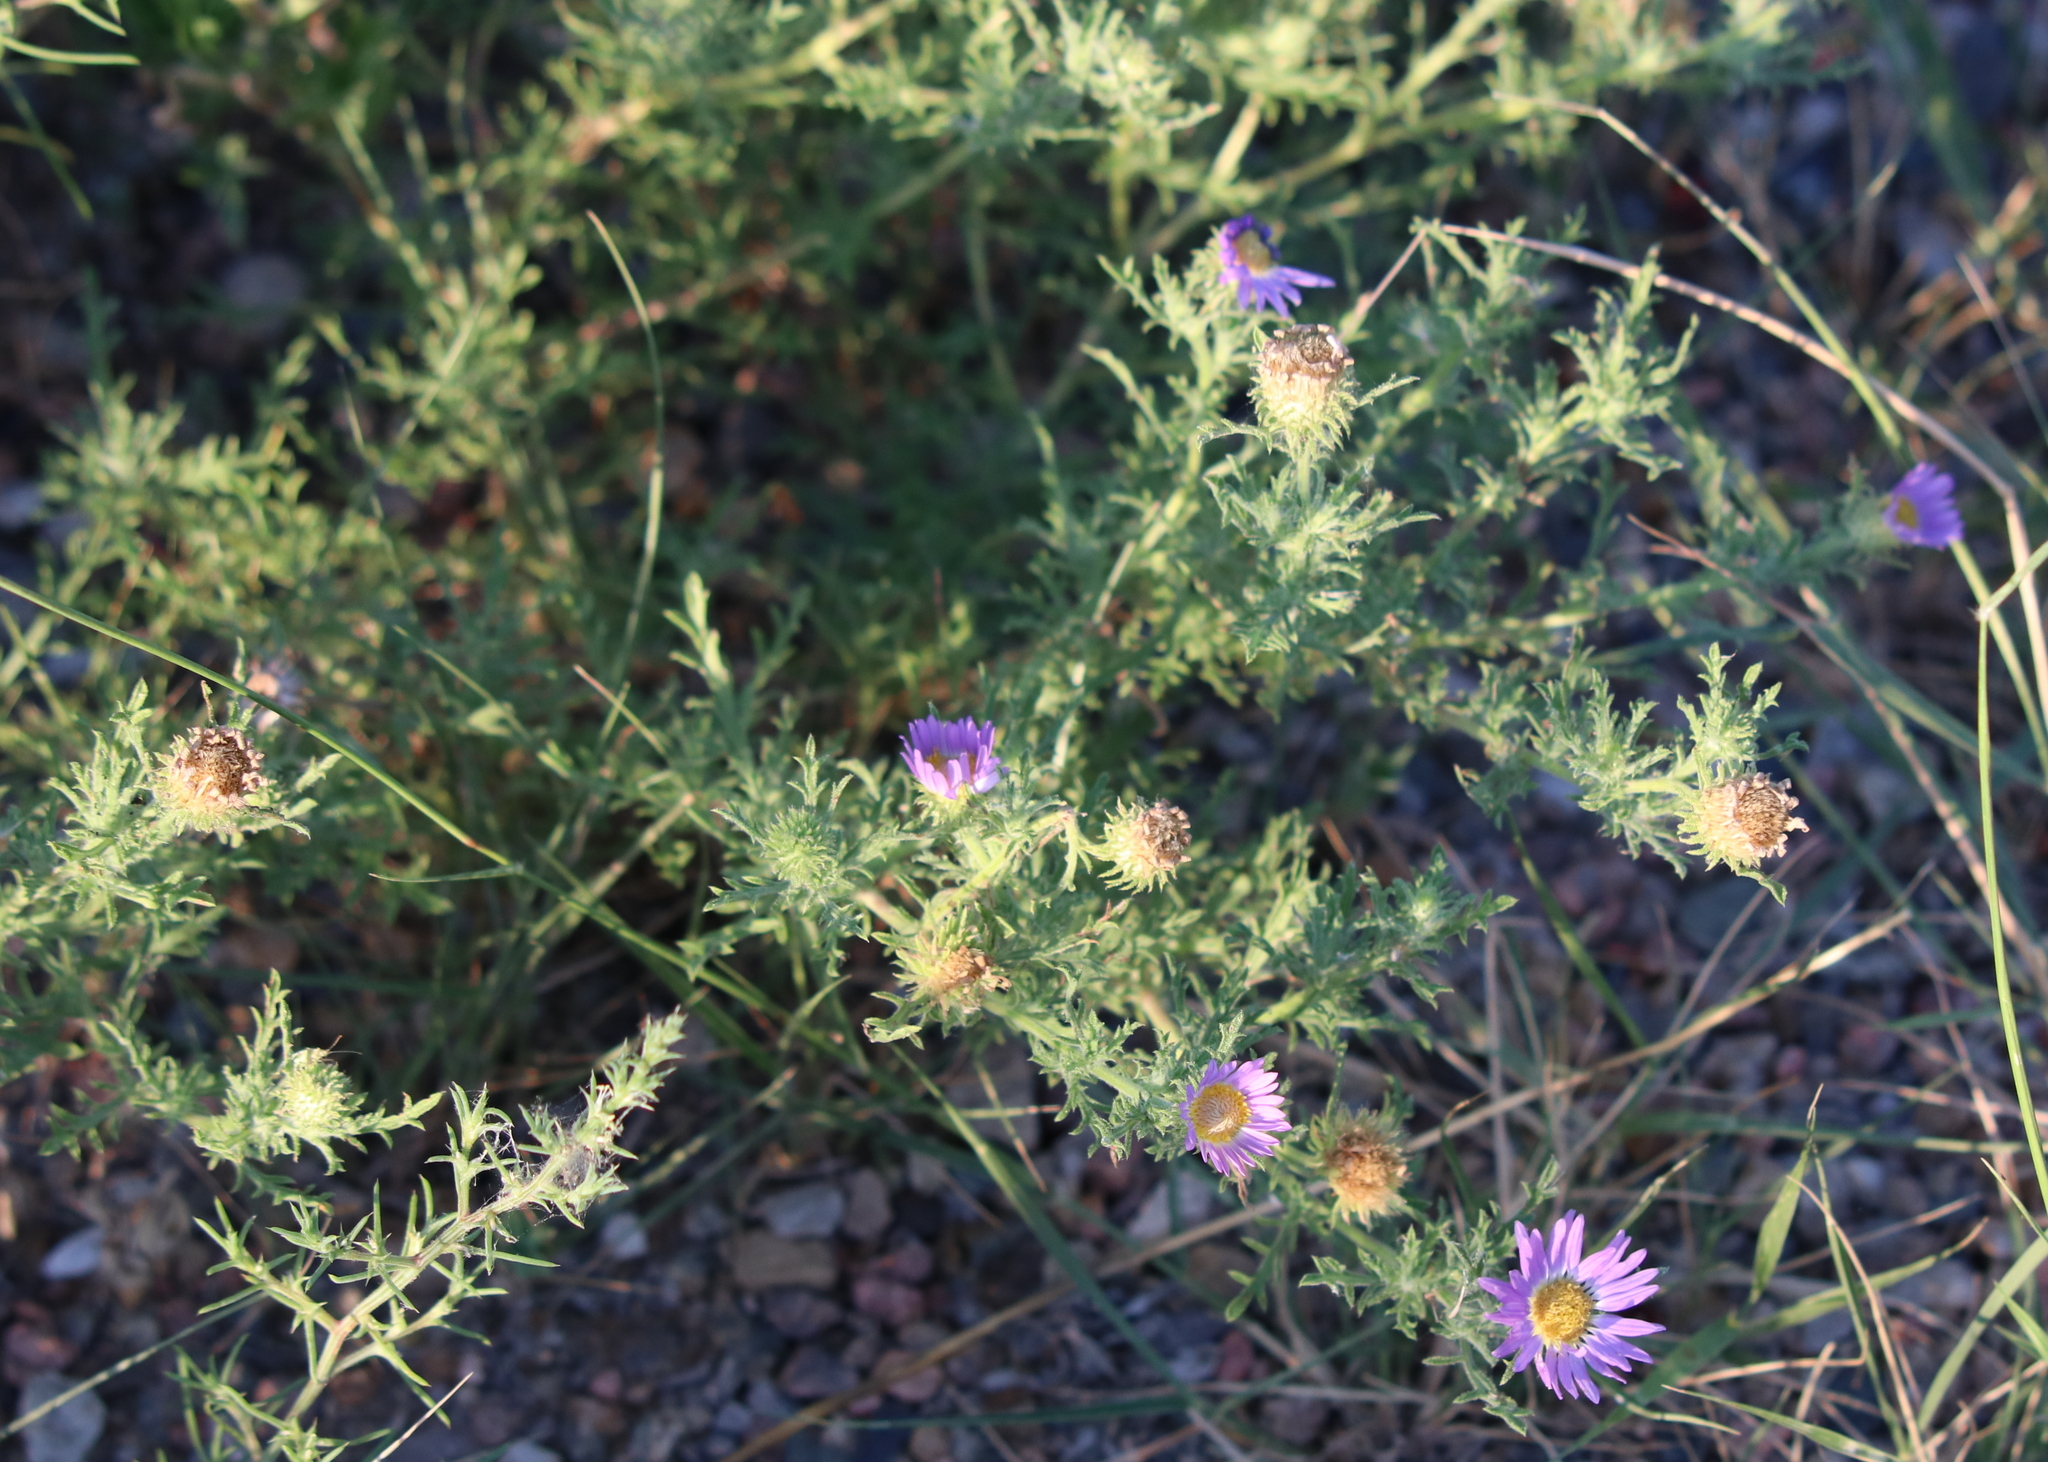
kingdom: Plantae
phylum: Tracheophyta
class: Magnoliopsida
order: Asterales
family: Asteraceae
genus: Machaeranthera
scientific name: Machaeranthera tanacetifolia
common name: Tansy-aster
